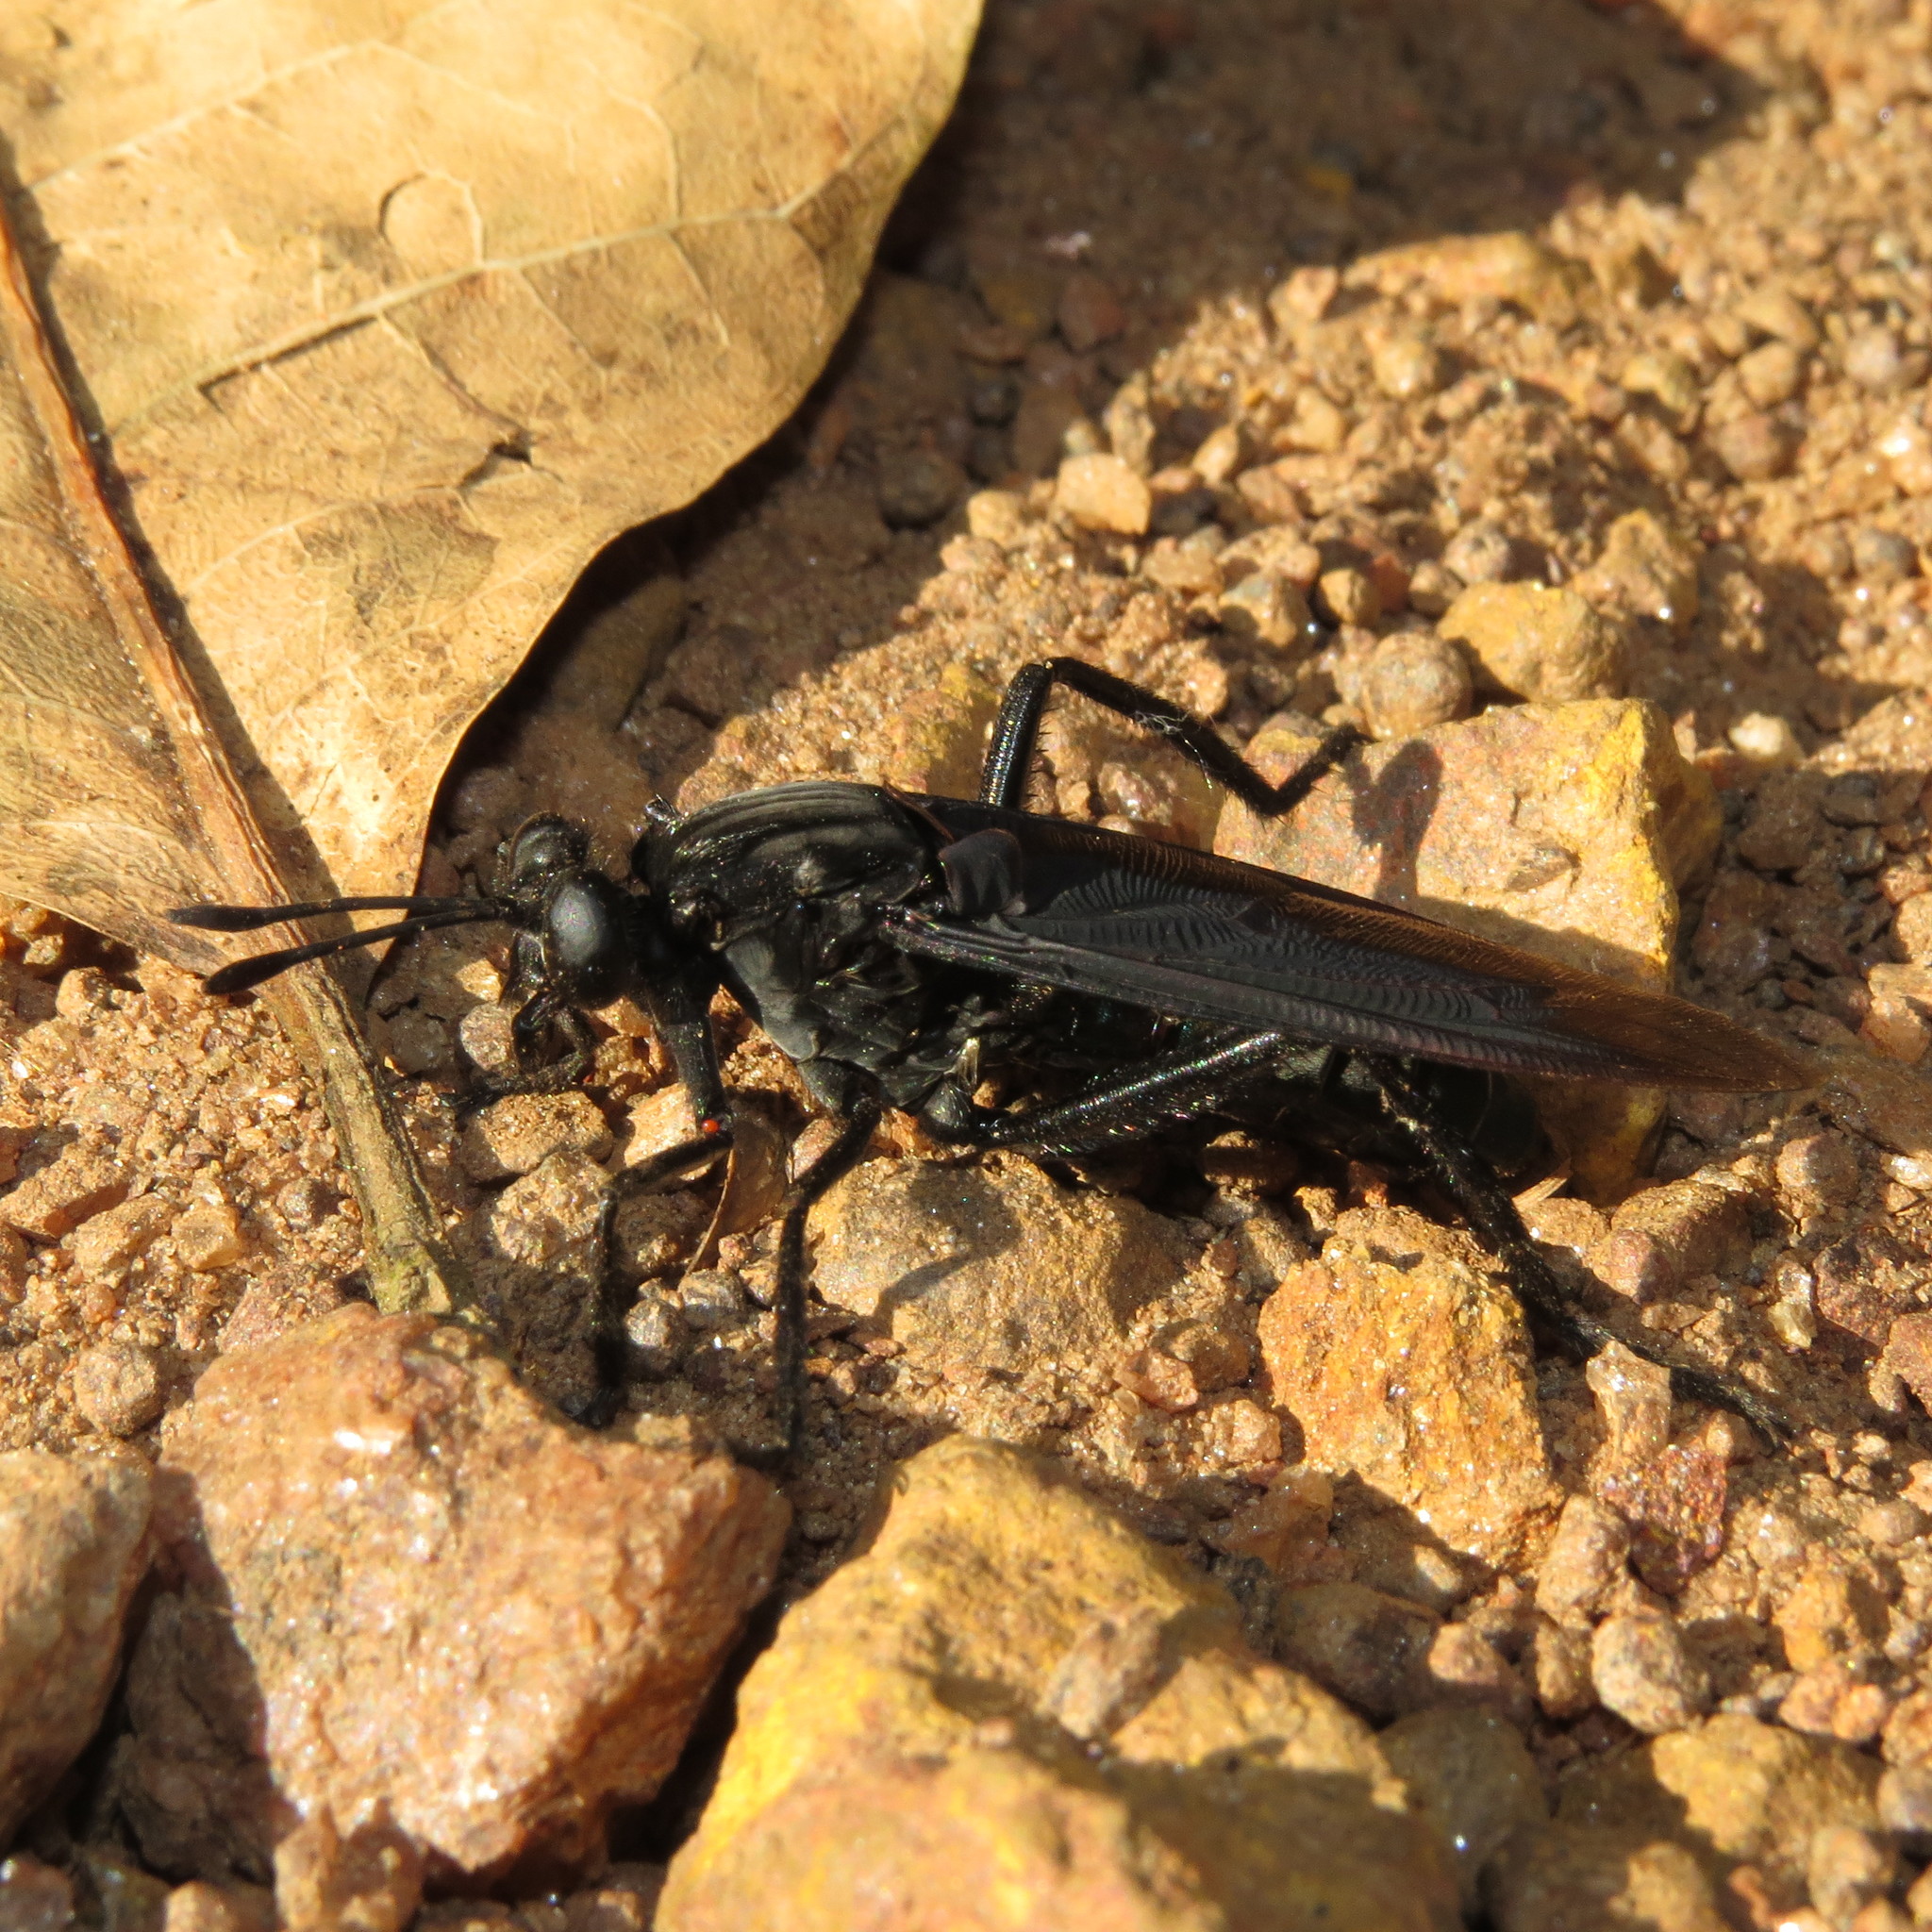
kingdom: Animalia
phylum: Arthropoda
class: Insecta
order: Diptera
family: Mydidae
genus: Mydas
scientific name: Mydas coerulescens
